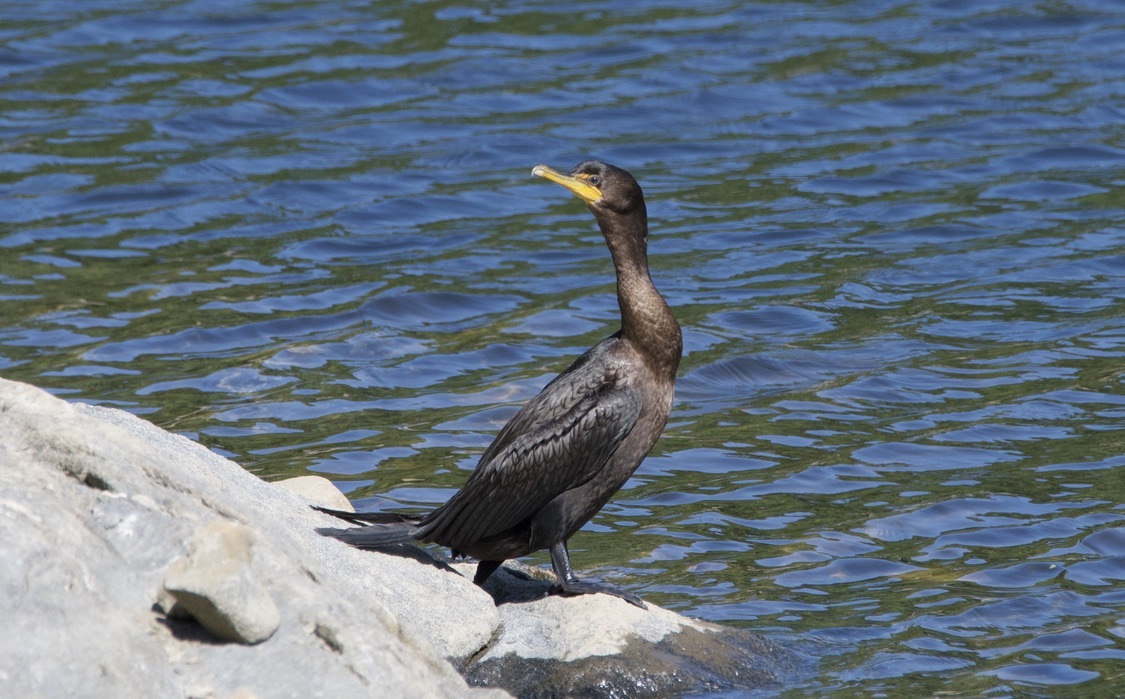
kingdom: Animalia
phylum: Chordata
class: Aves
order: Suliformes
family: Phalacrocoracidae
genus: Phalacrocorax
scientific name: Phalacrocorax auritus
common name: Double-crested cormorant
